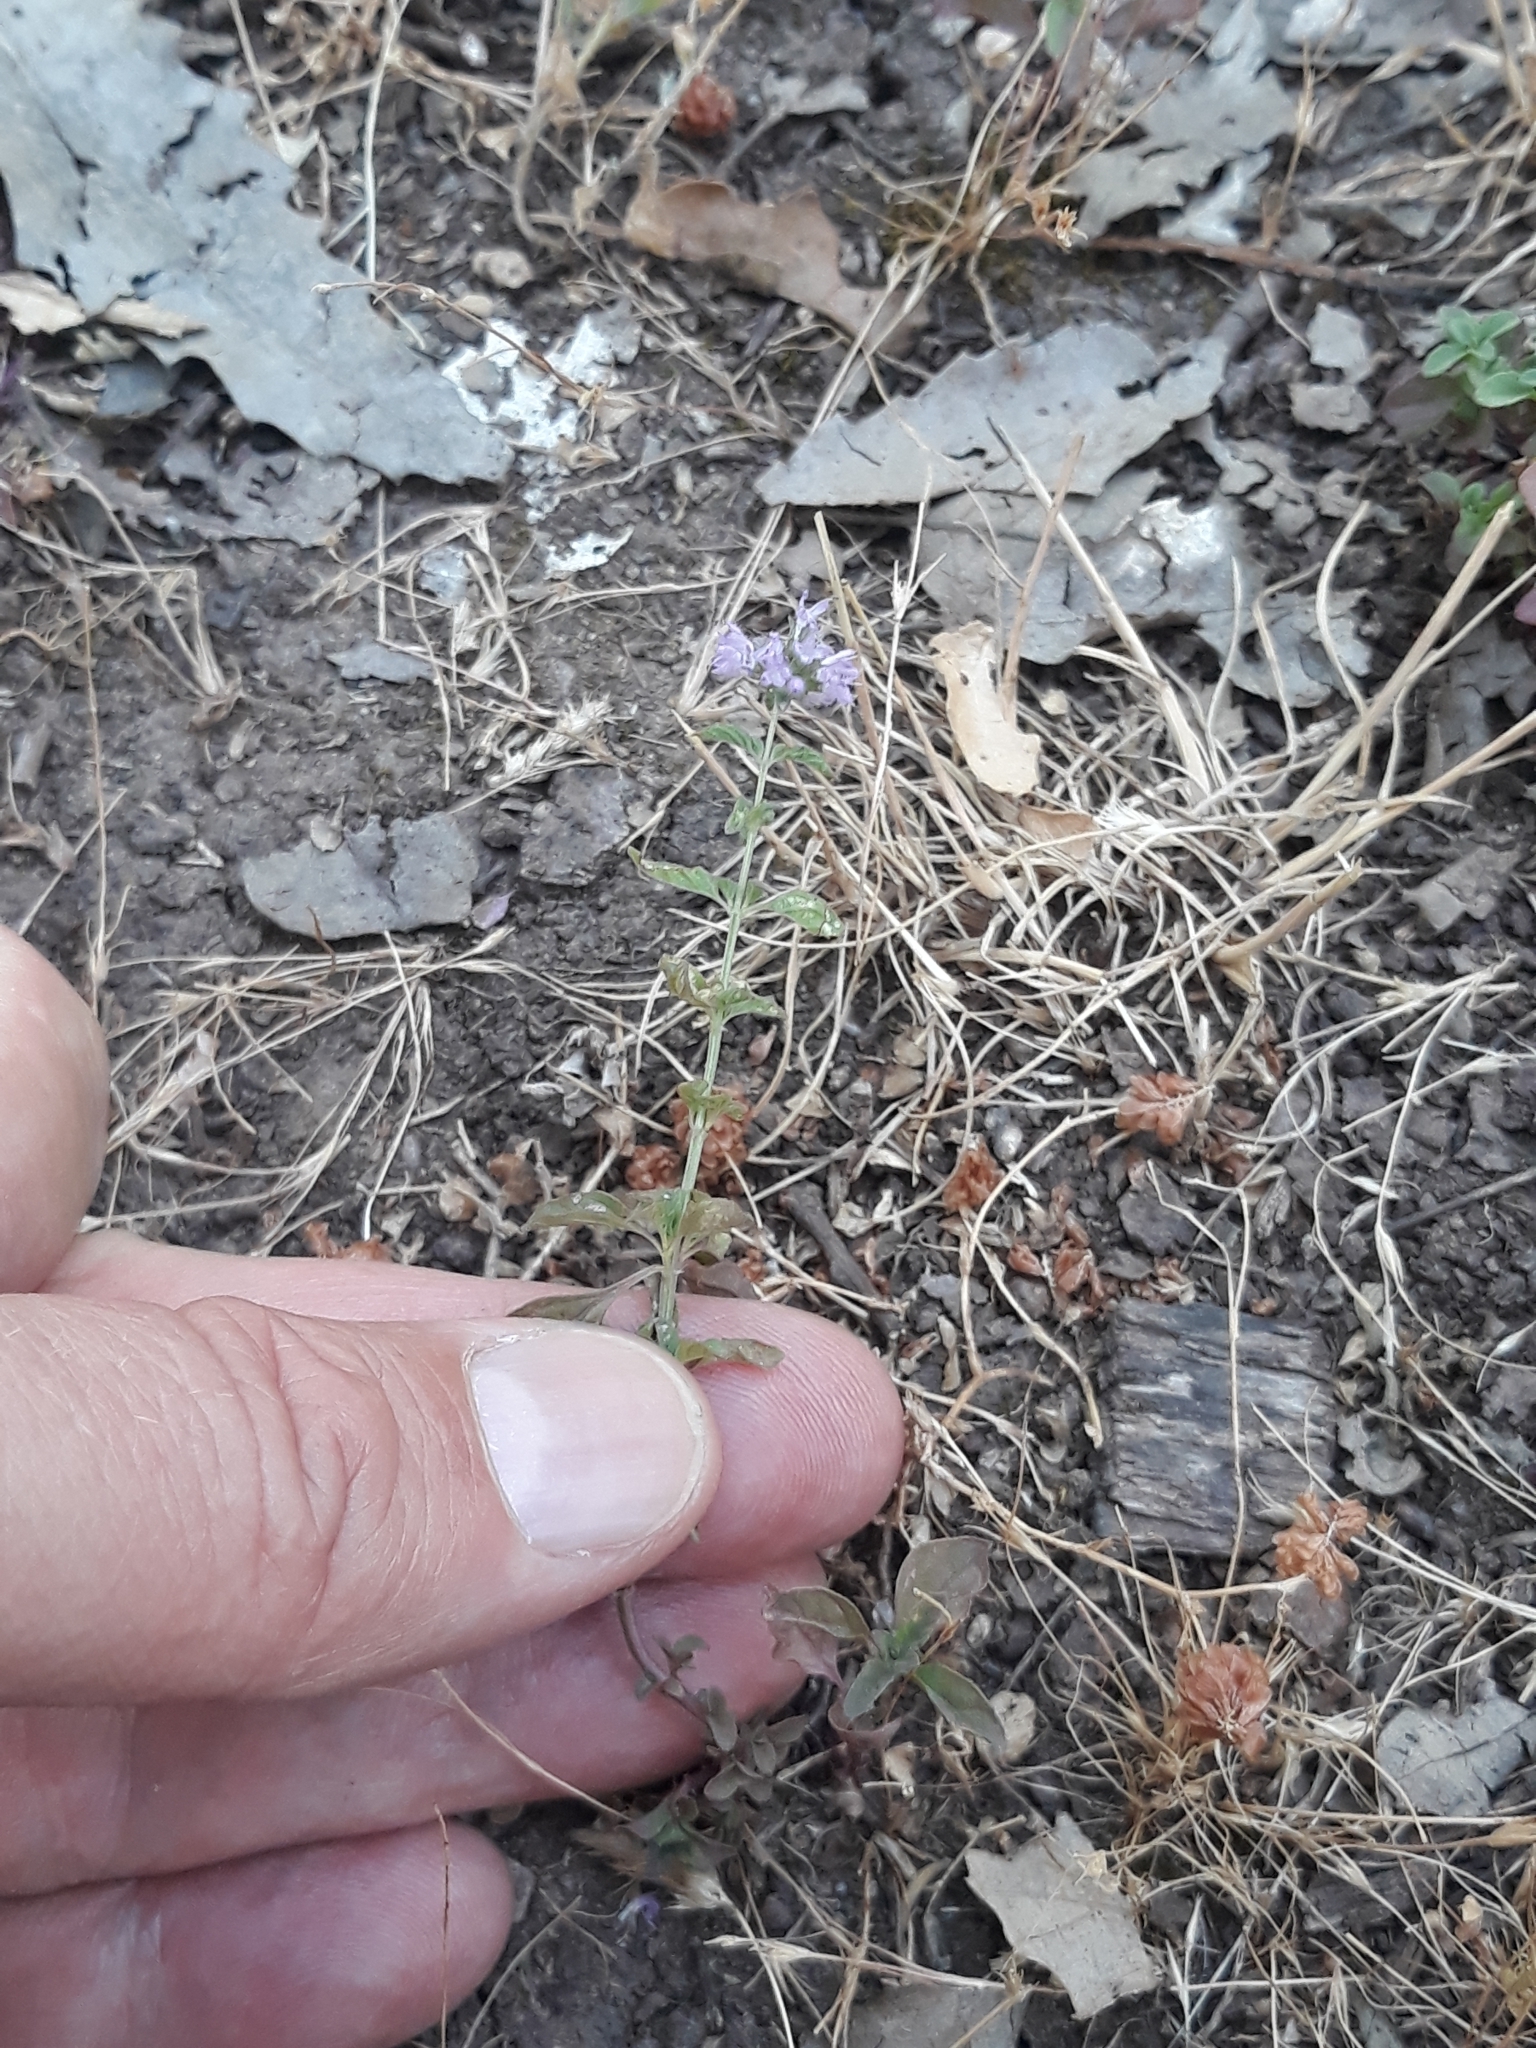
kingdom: Plantae
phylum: Tracheophyta
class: Magnoliopsida
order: Lamiales
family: Lamiaceae
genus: Mentha
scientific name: Mentha pulegium
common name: Pennyroyal
